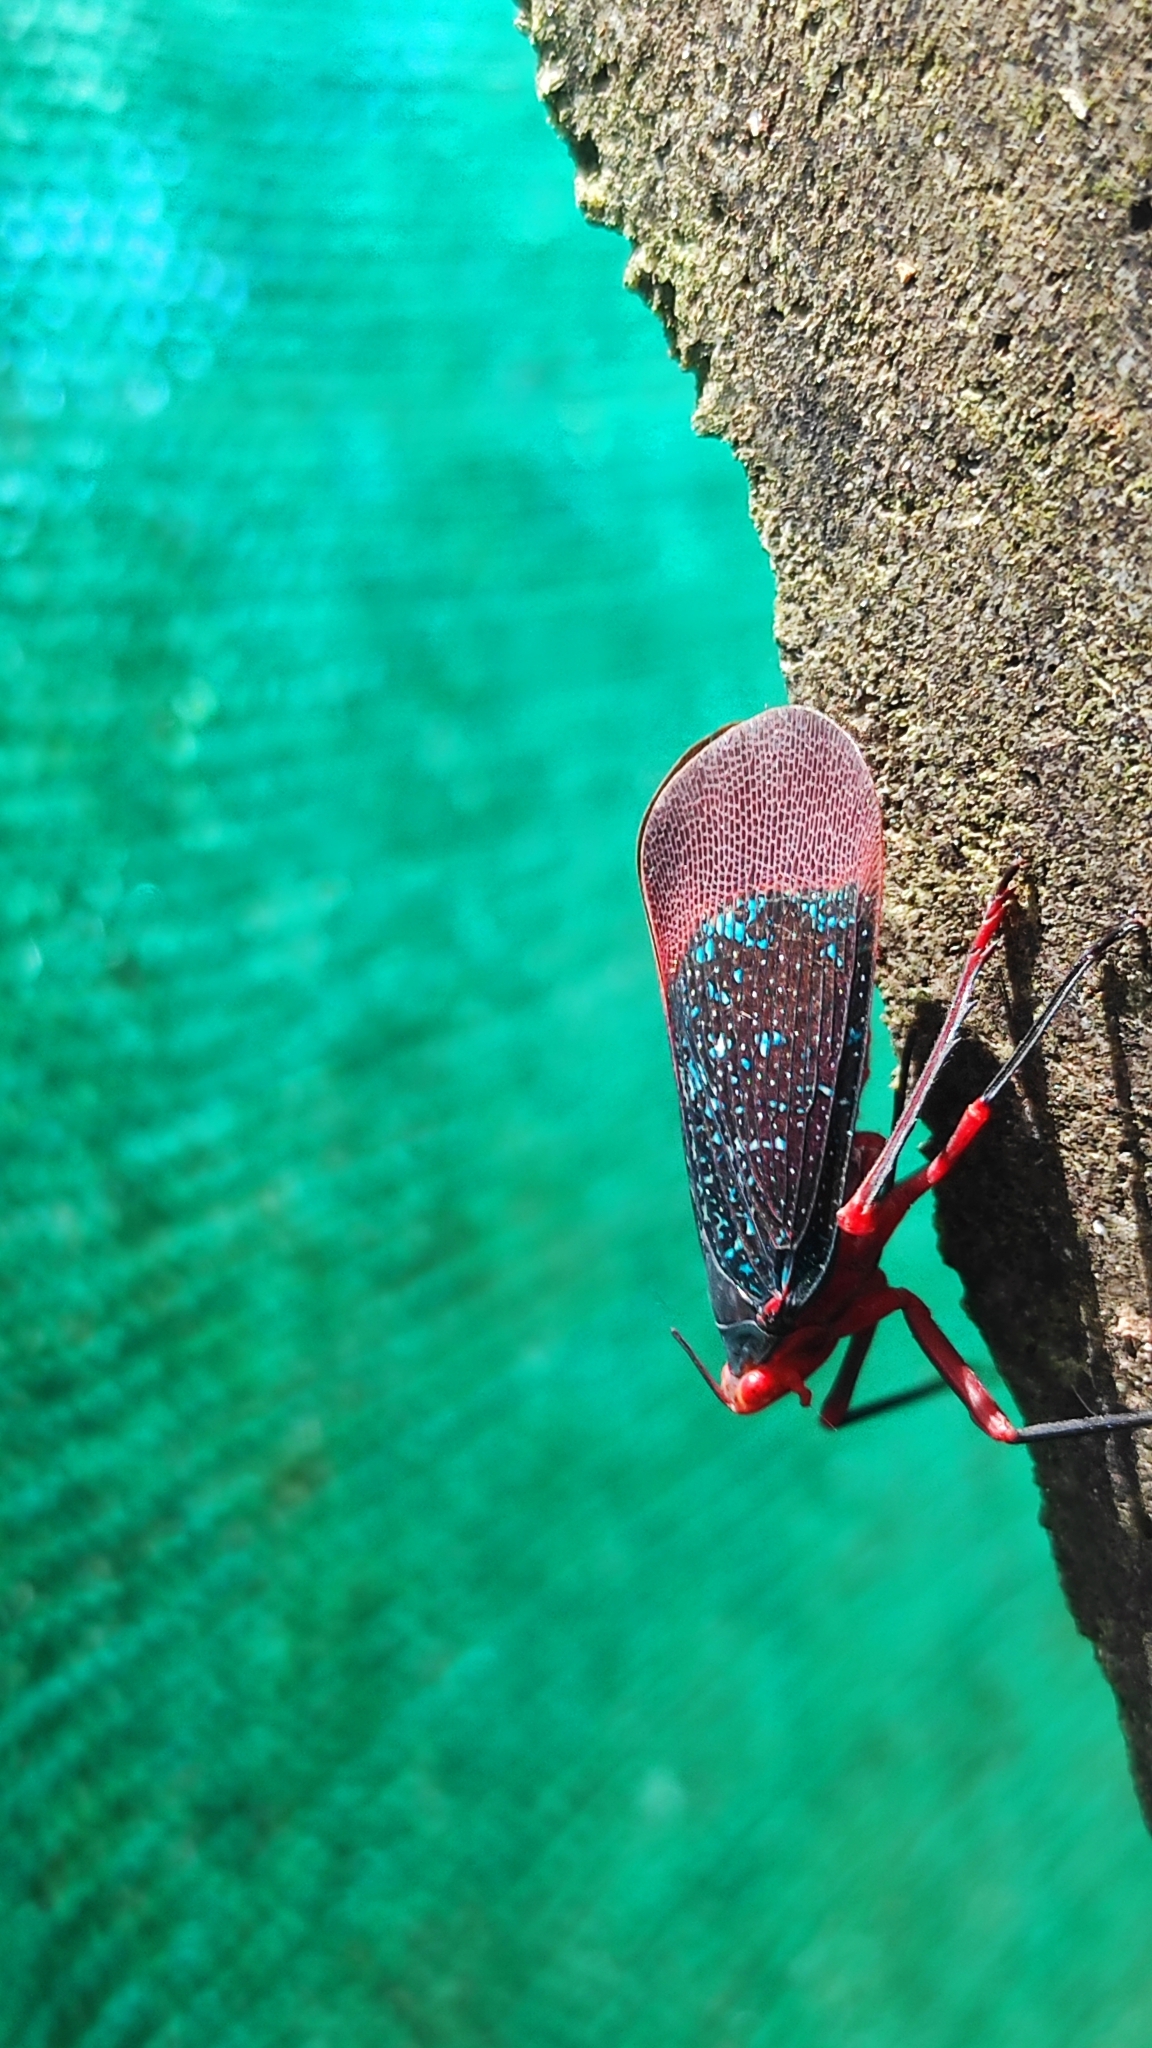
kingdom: Animalia
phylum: Arthropoda
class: Insecta
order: Hemiptera
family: Fulgoridae
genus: Kalidasa
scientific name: Kalidasa lanata
